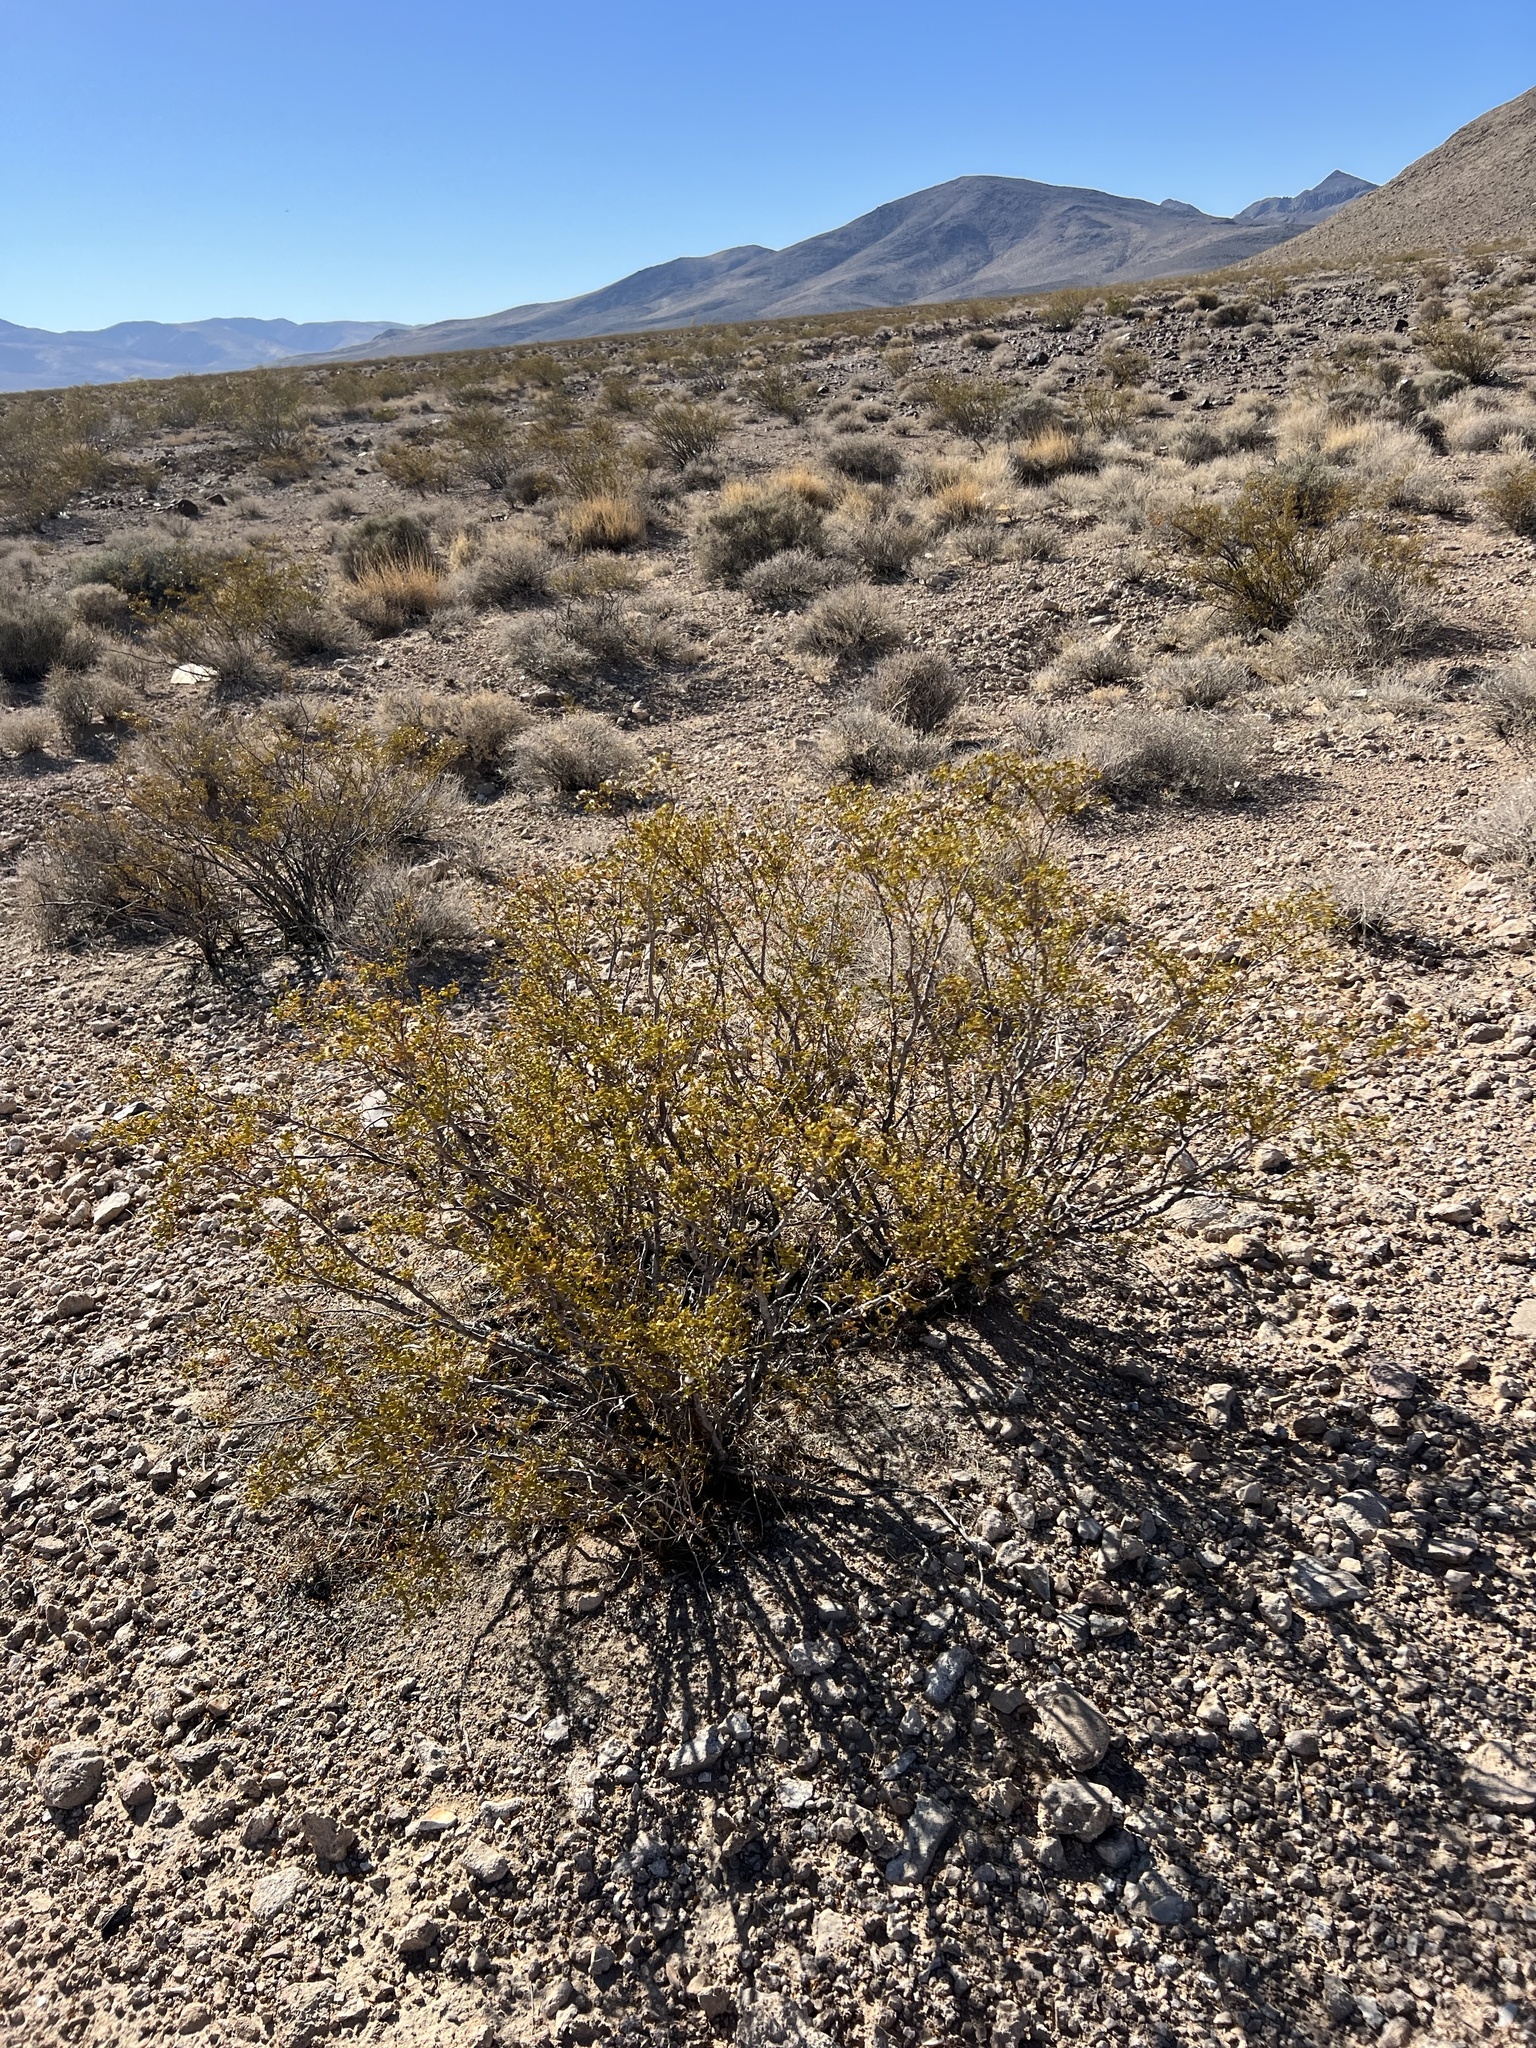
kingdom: Plantae
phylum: Tracheophyta
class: Magnoliopsida
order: Zygophyllales
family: Zygophyllaceae
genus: Larrea
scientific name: Larrea tridentata
